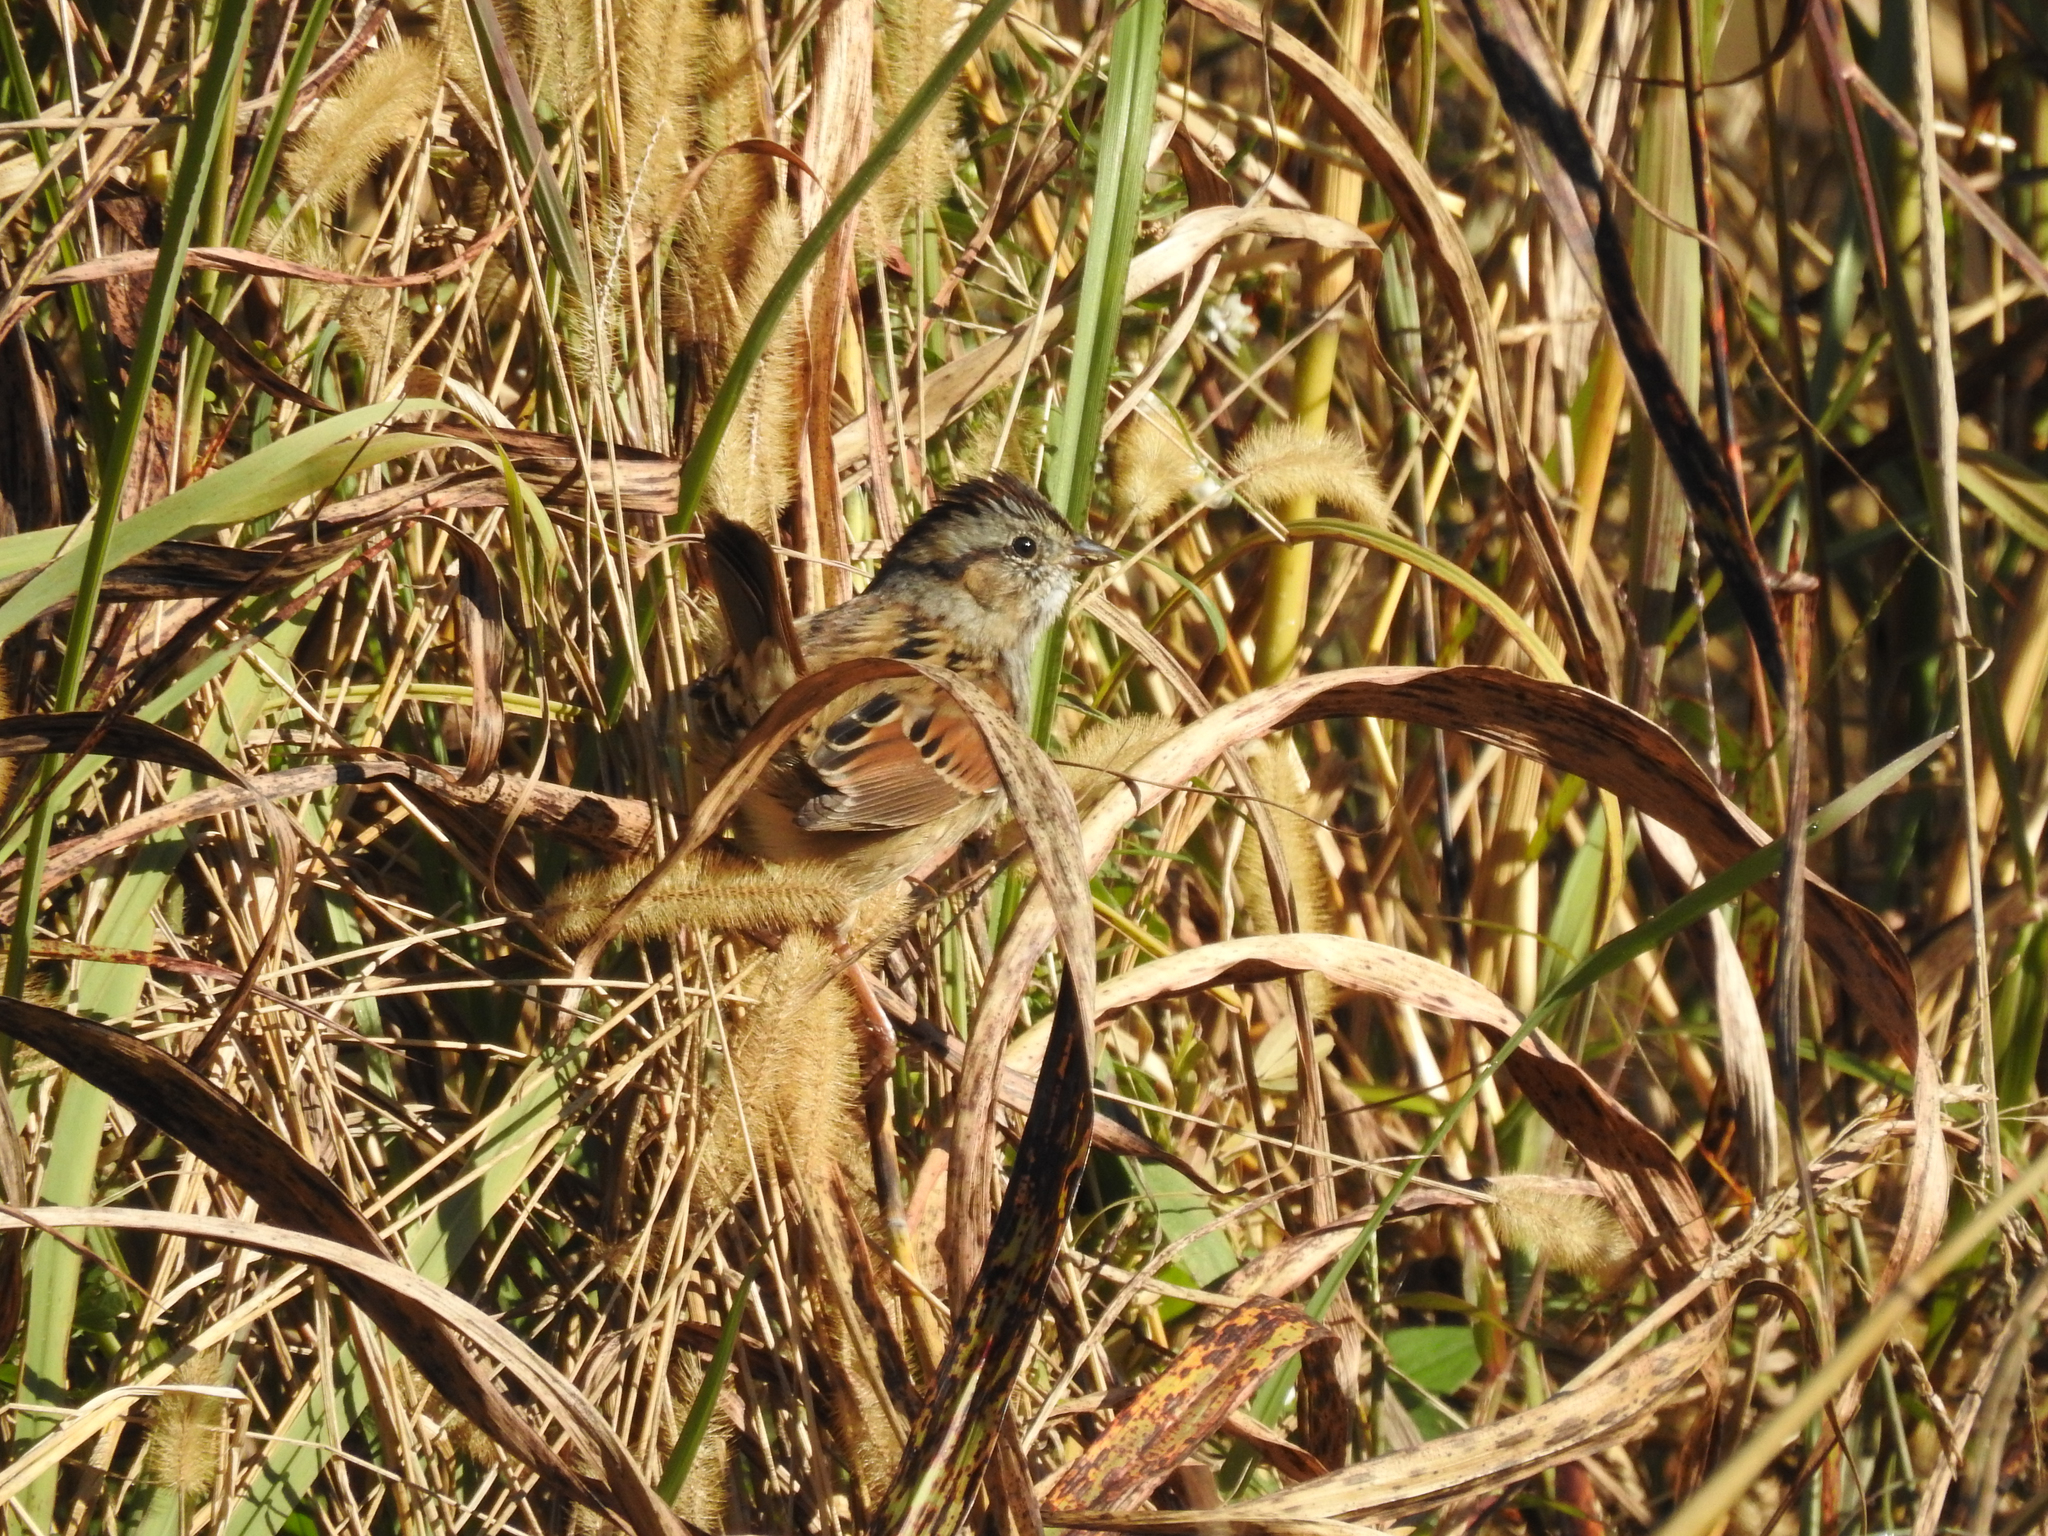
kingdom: Animalia
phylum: Chordata
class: Aves
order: Passeriformes
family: Passerellidae
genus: Melospiza
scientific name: Melospiza georgiana
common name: Swamp sparrow
